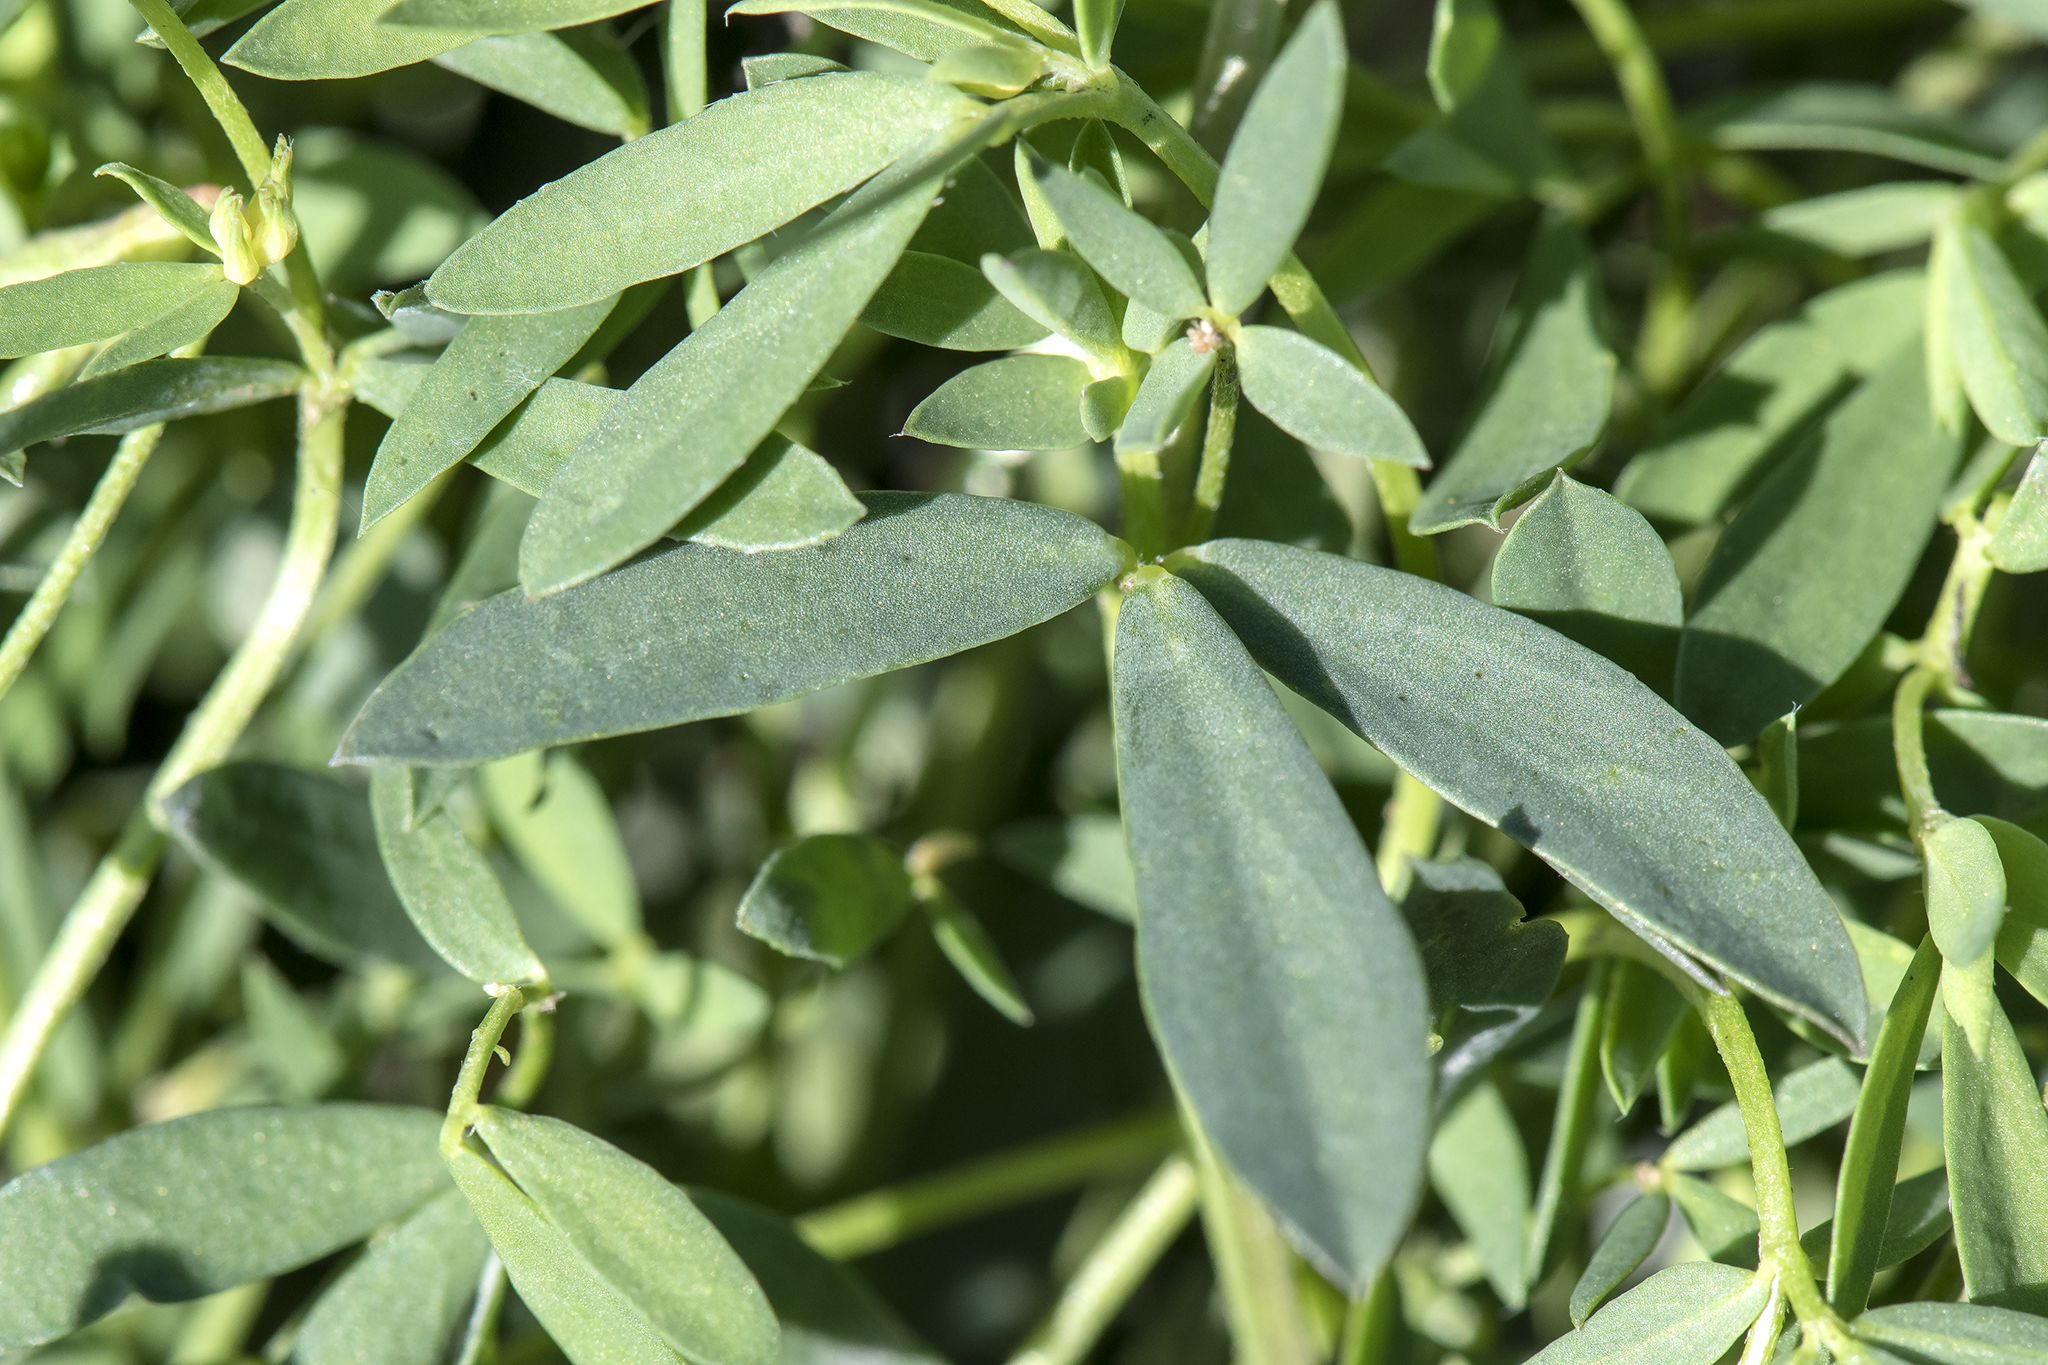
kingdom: Plantae
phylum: Tracheophyta
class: Magnoliopsida
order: Fabales
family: Fabaceae
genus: Lotus
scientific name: Lotus tenuis
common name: Narrow-leaved bird's-foot-trefoil
